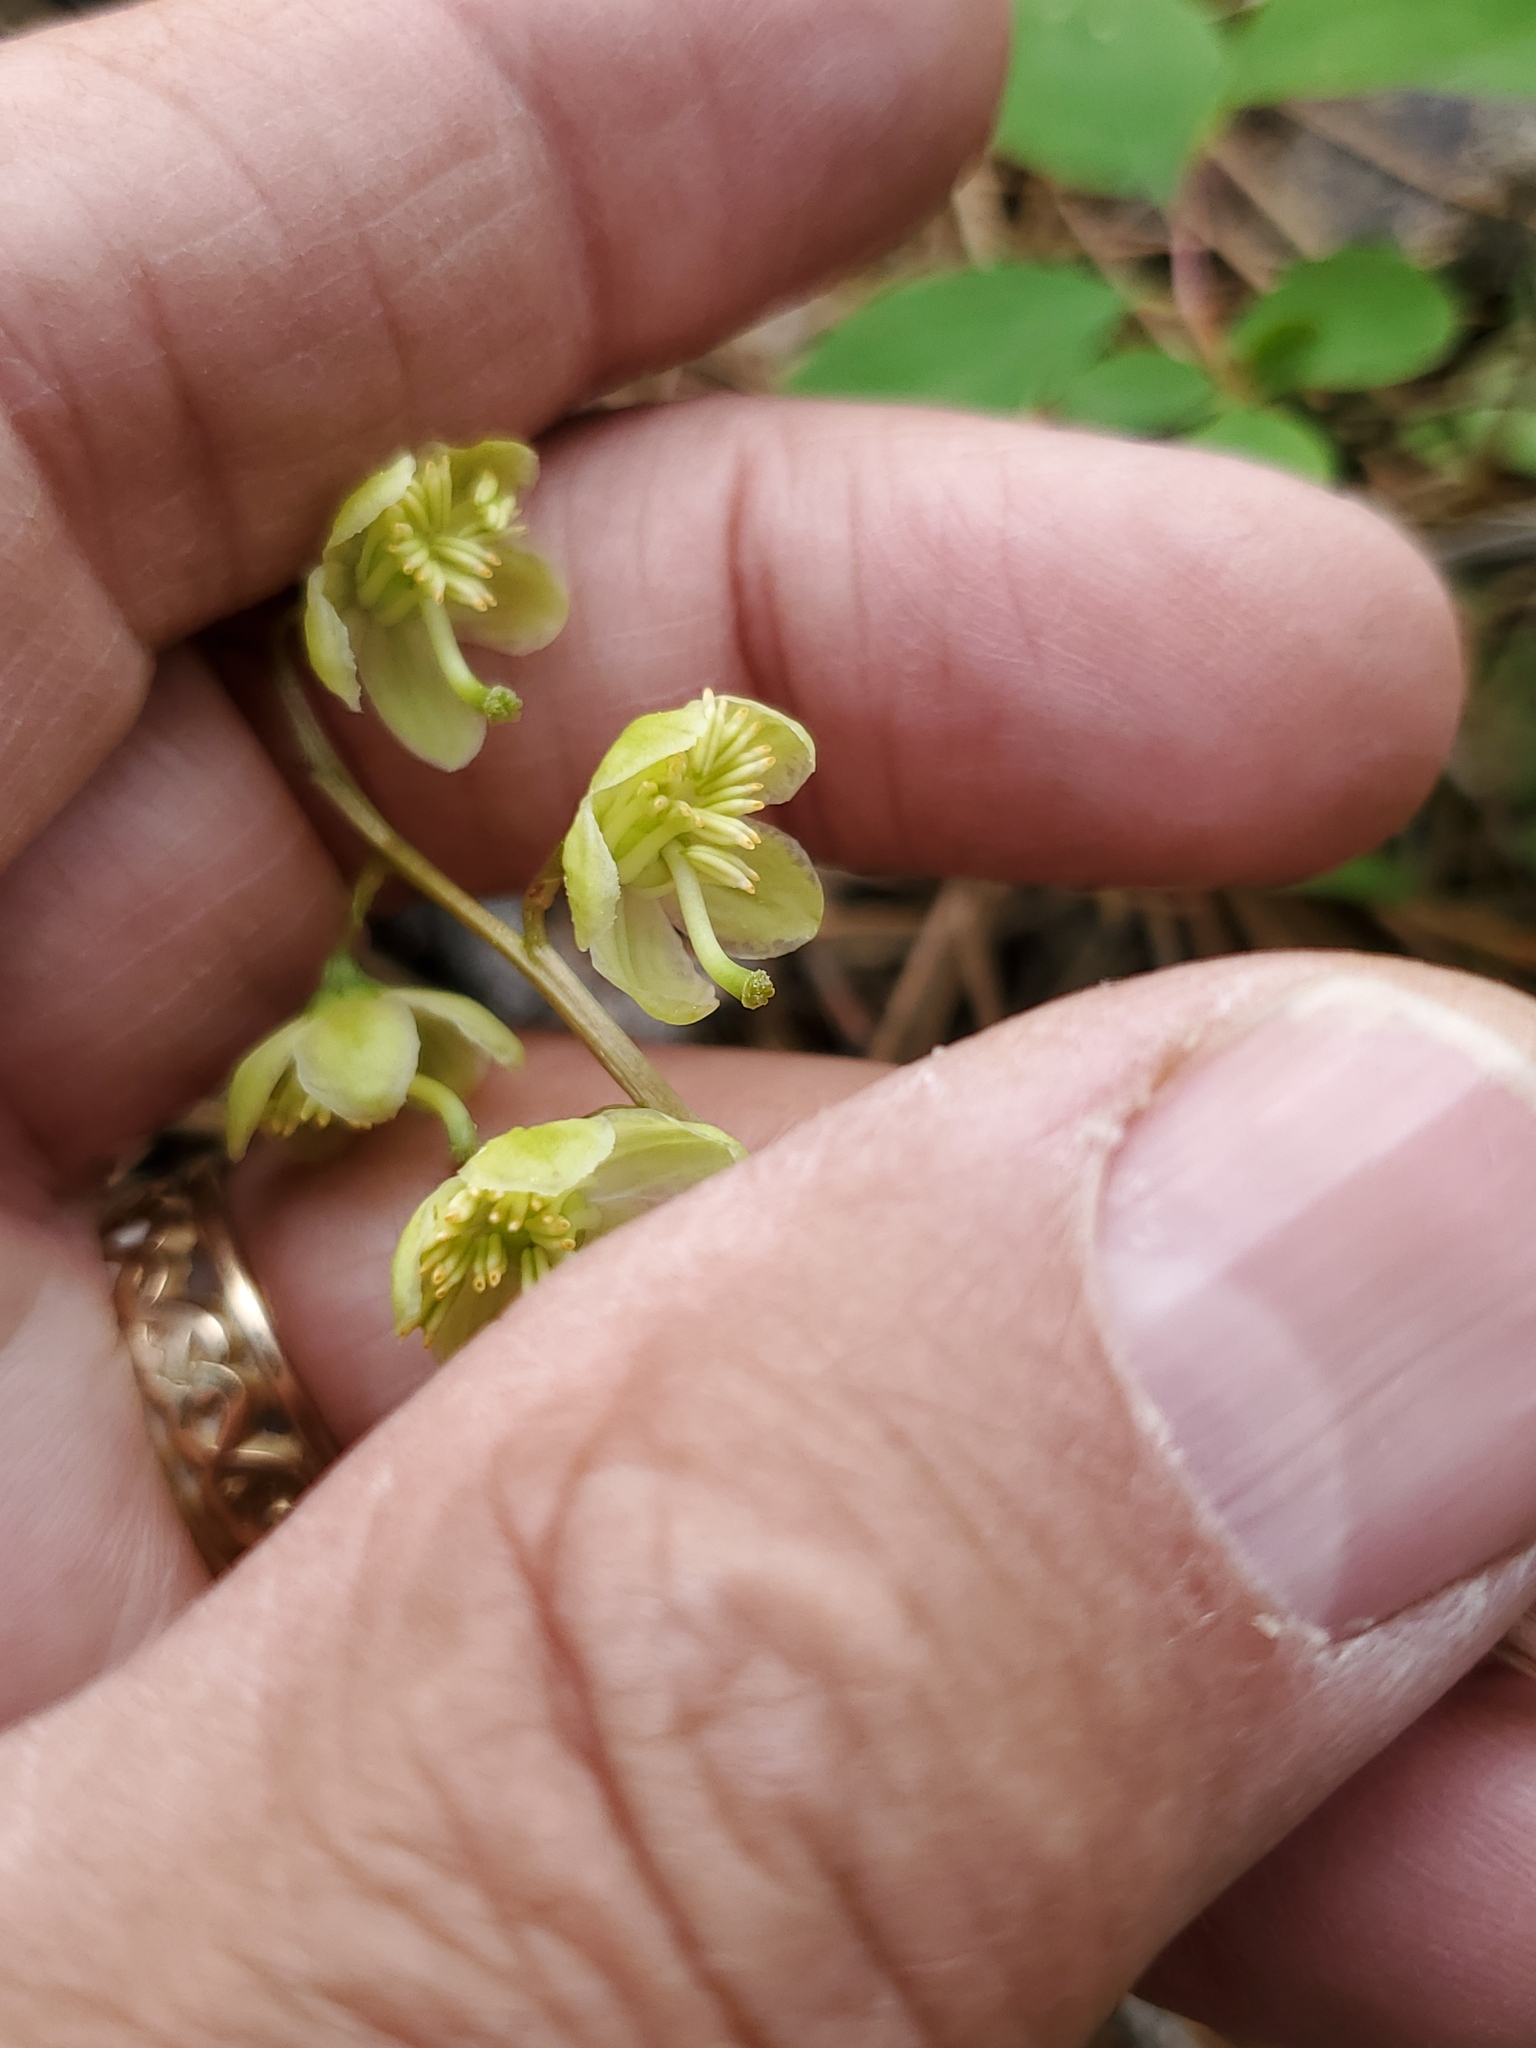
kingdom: Plantae
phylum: Tracheophyta
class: Magnoliopsida
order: Ericales
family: Ericaceae
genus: Pyrola
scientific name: Pyrola chlorantha
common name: Green wintergreen
